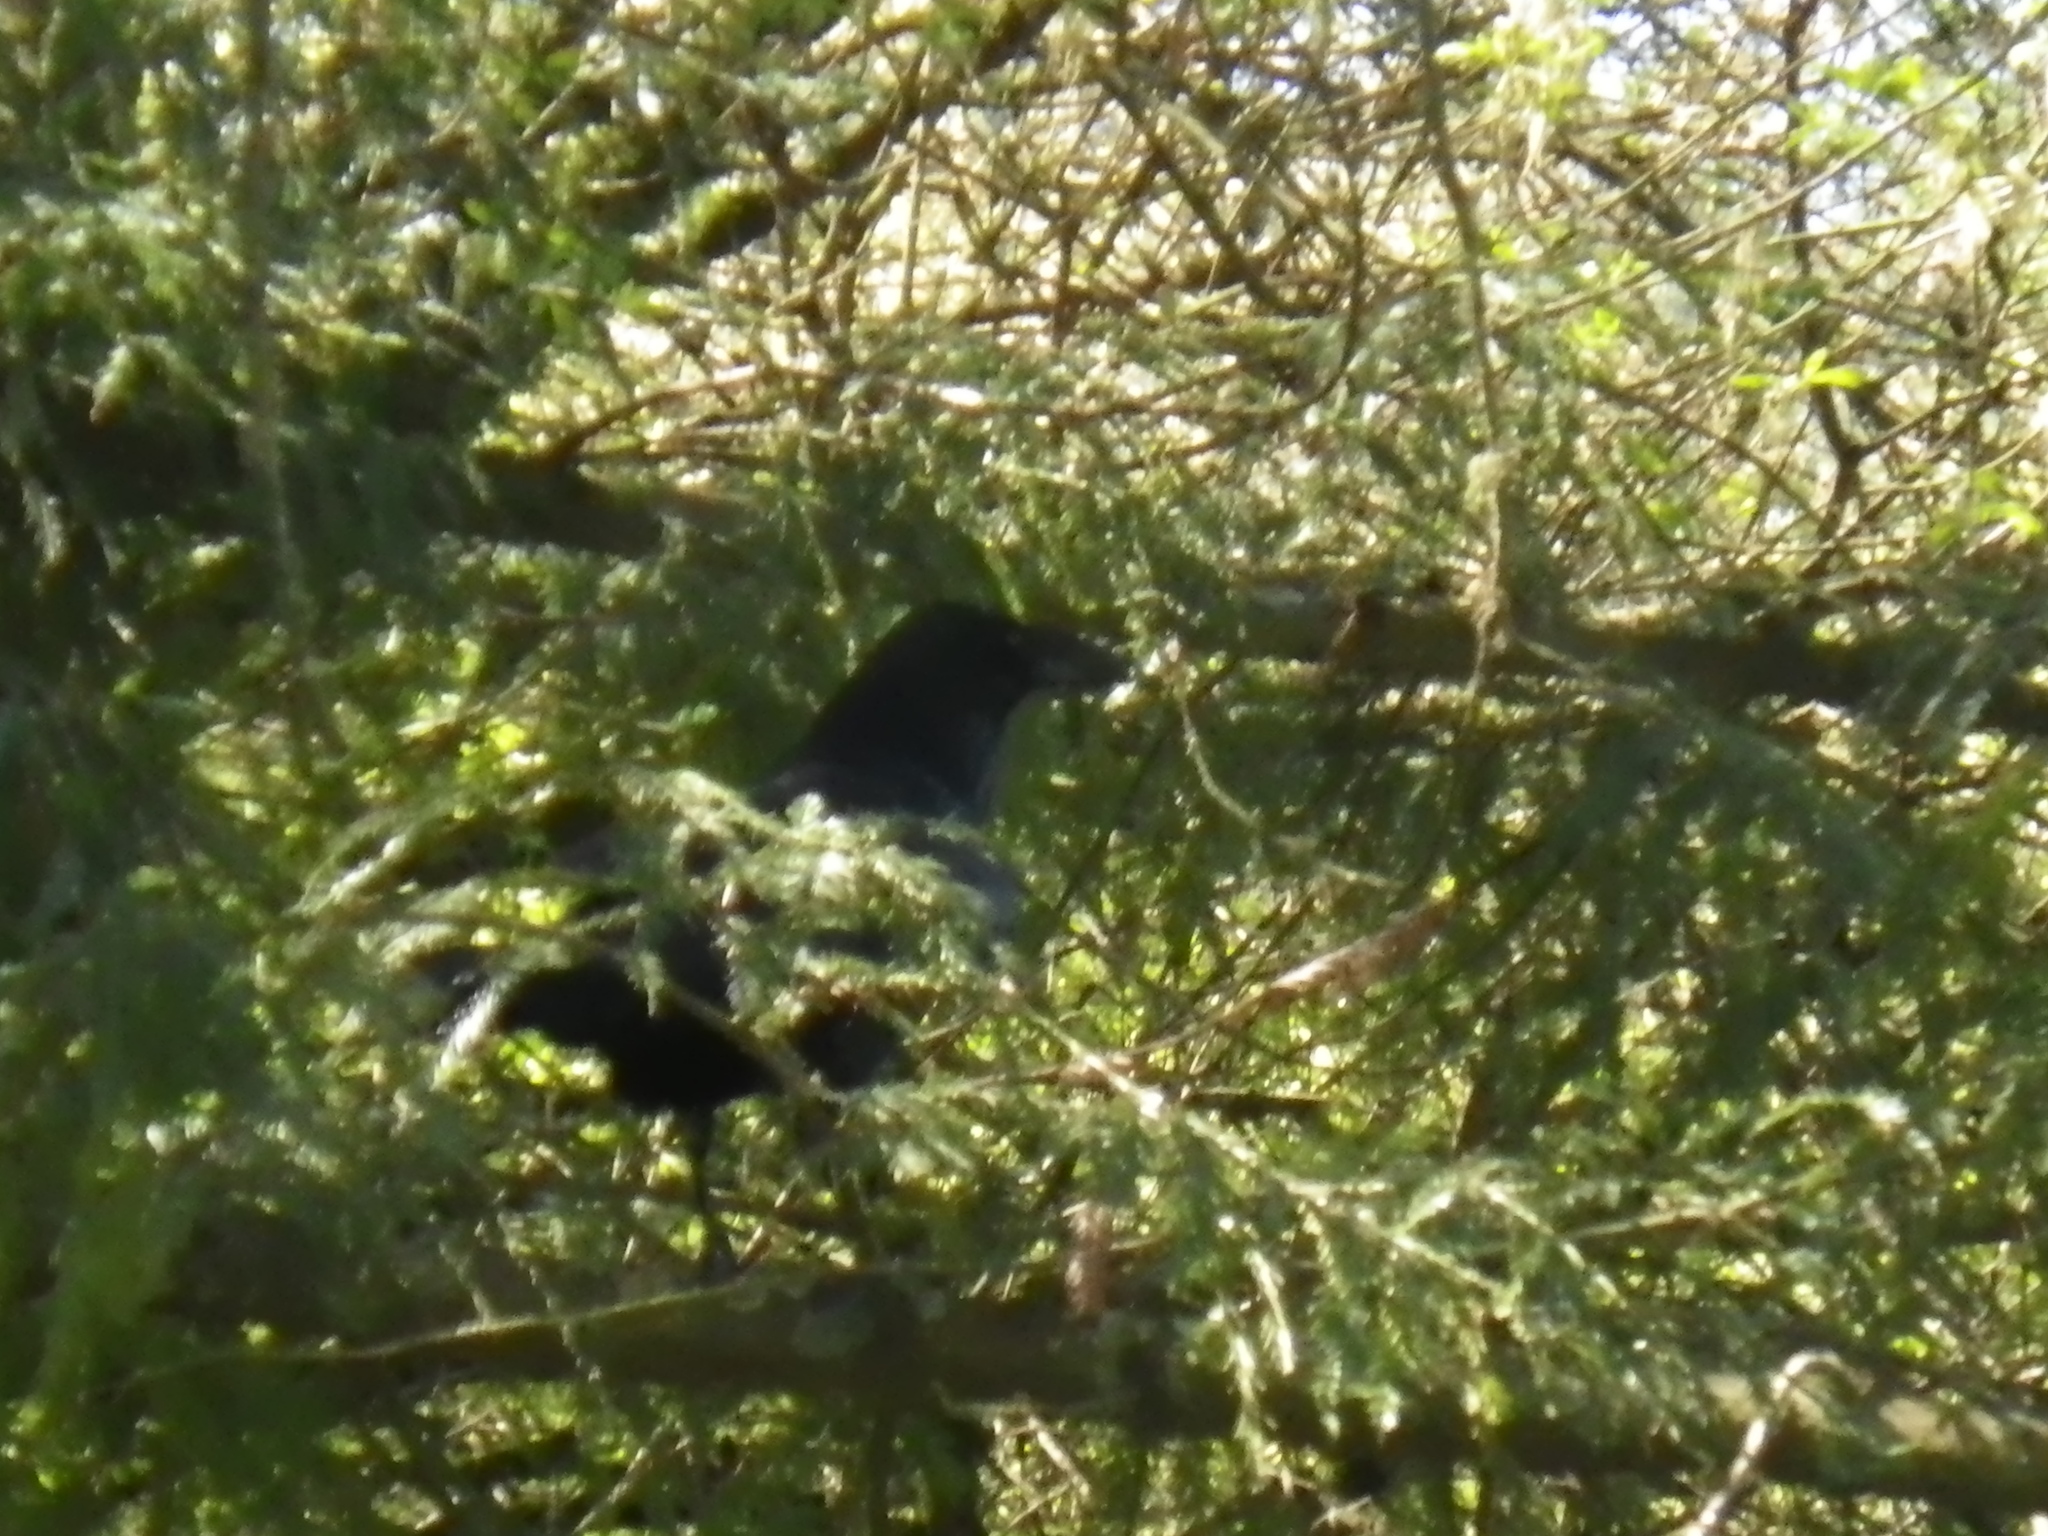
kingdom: Animalia
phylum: Chordata
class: Aves
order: Passeriformes
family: Corvidae
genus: Corvus
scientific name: Corvus corax
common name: Common raven
